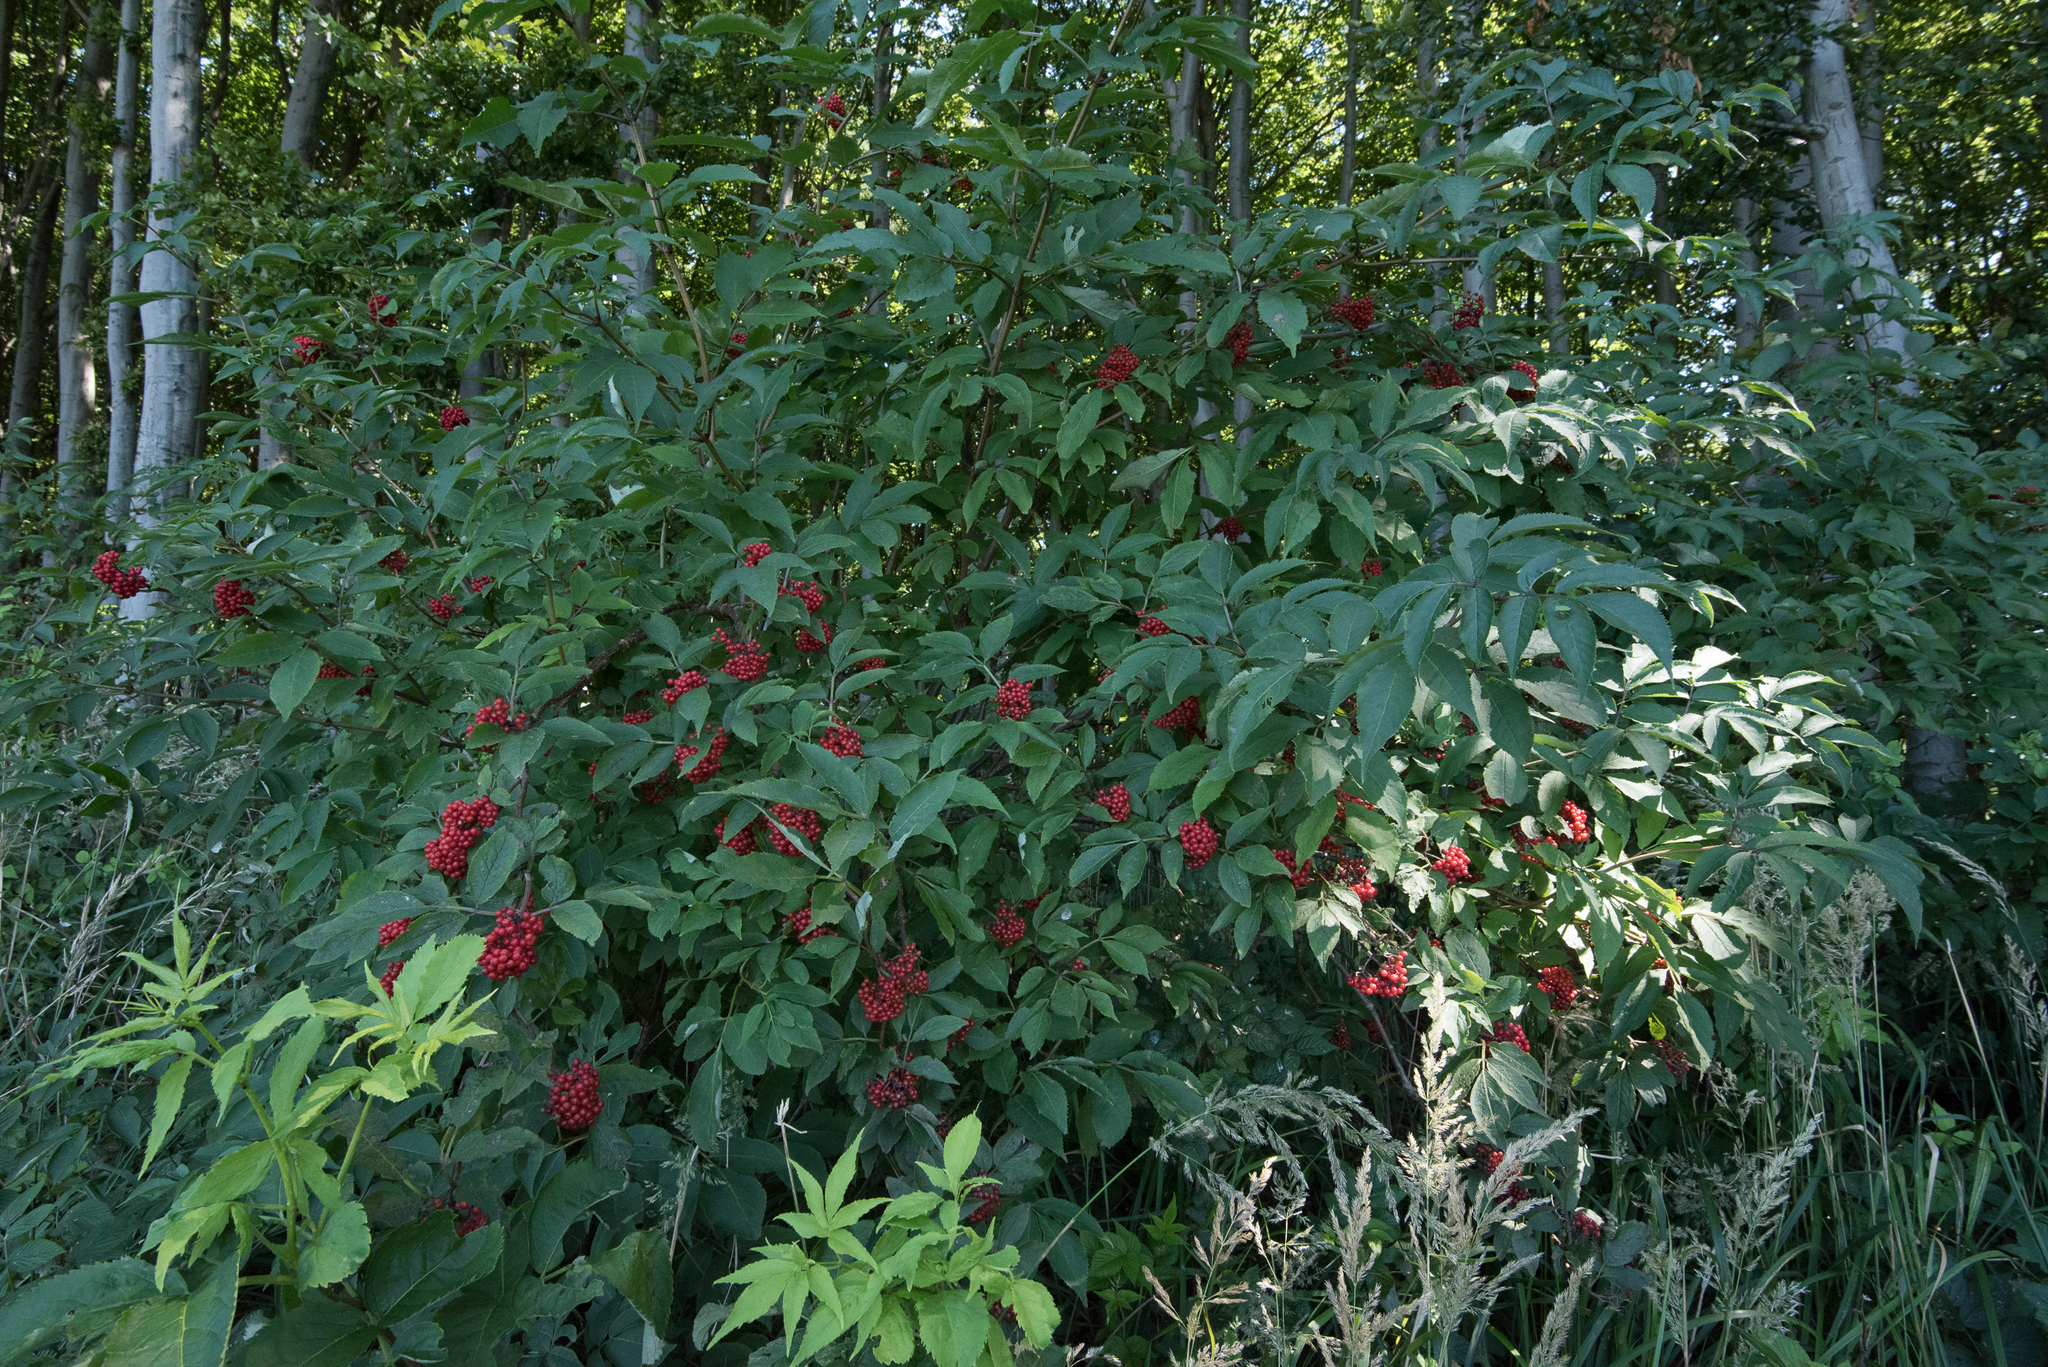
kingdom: Plantae
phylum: Tracheophyta
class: Magnoliopsida
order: Dipsacales
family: Viburnaceae
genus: Sambucus
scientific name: Sambucus racemosa
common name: Red-berried elder
